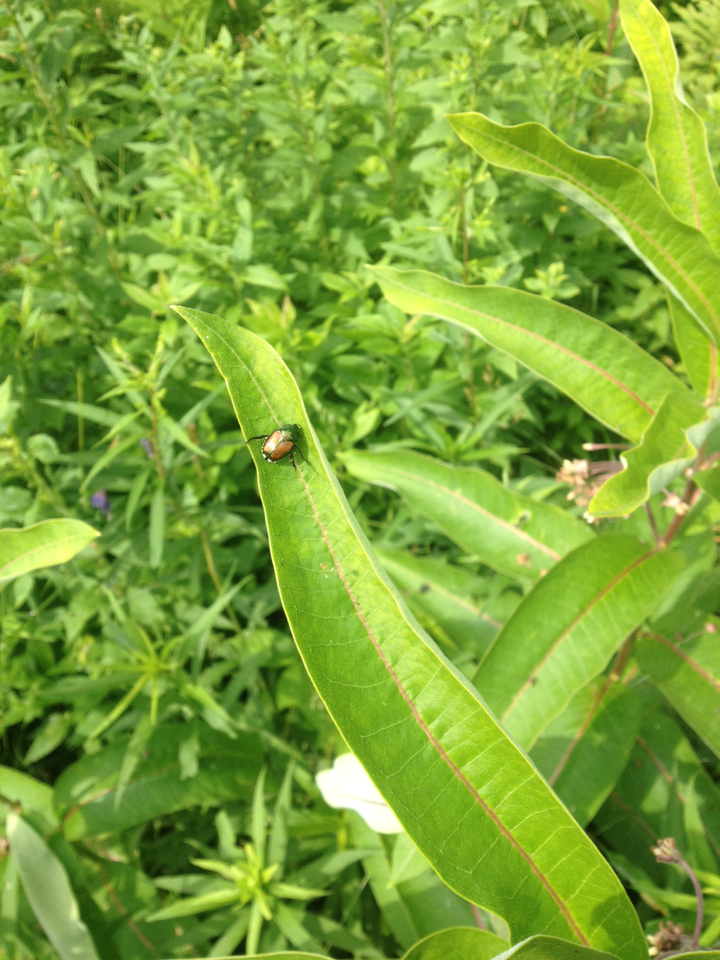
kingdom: Animalia
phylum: Arthropoda
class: Insecta
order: Coleoptera
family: Scarabaeidae
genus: Popillia
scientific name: Popillia japonica
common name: Japanese beetle
